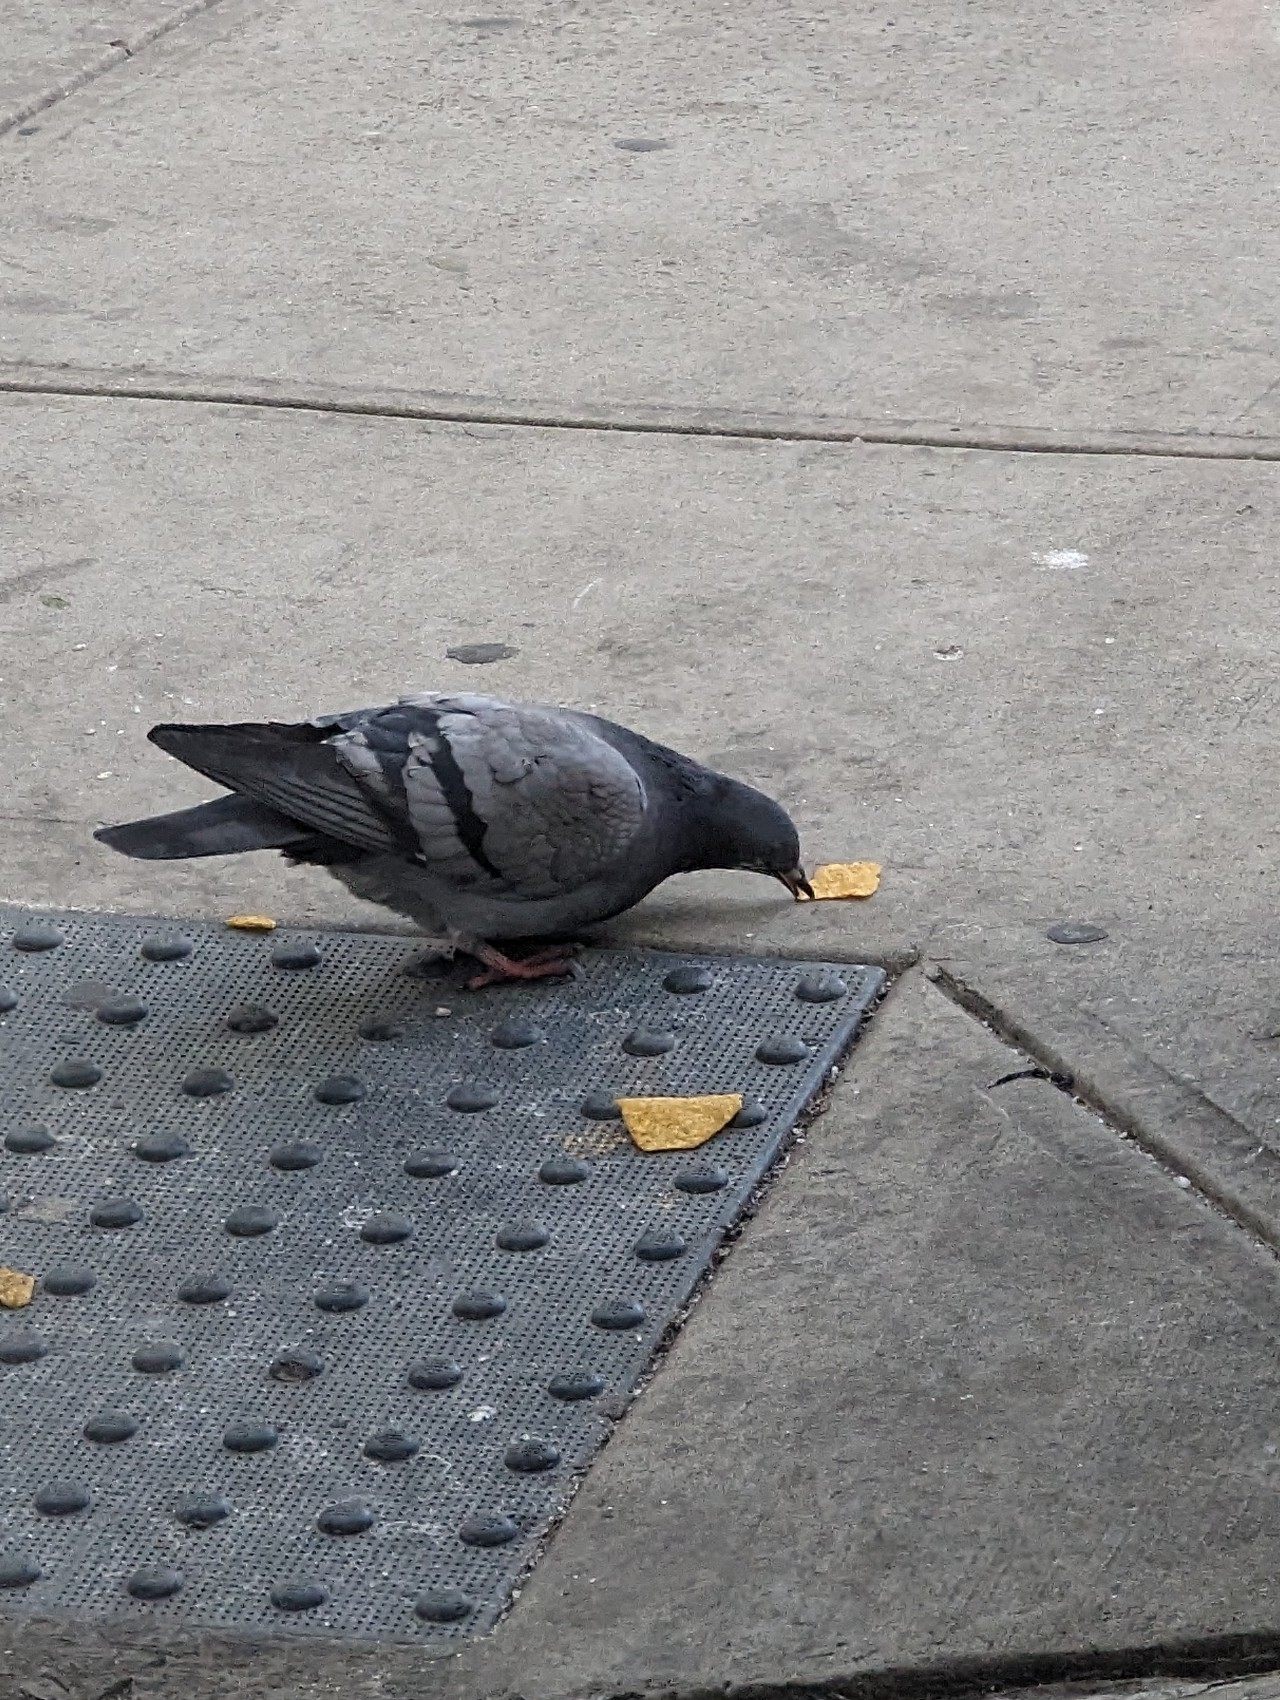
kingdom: Animalia
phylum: Chordata
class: Aves
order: Columbiformes
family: Columbidae
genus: Columba
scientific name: Columba livia
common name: Rock pigeon
